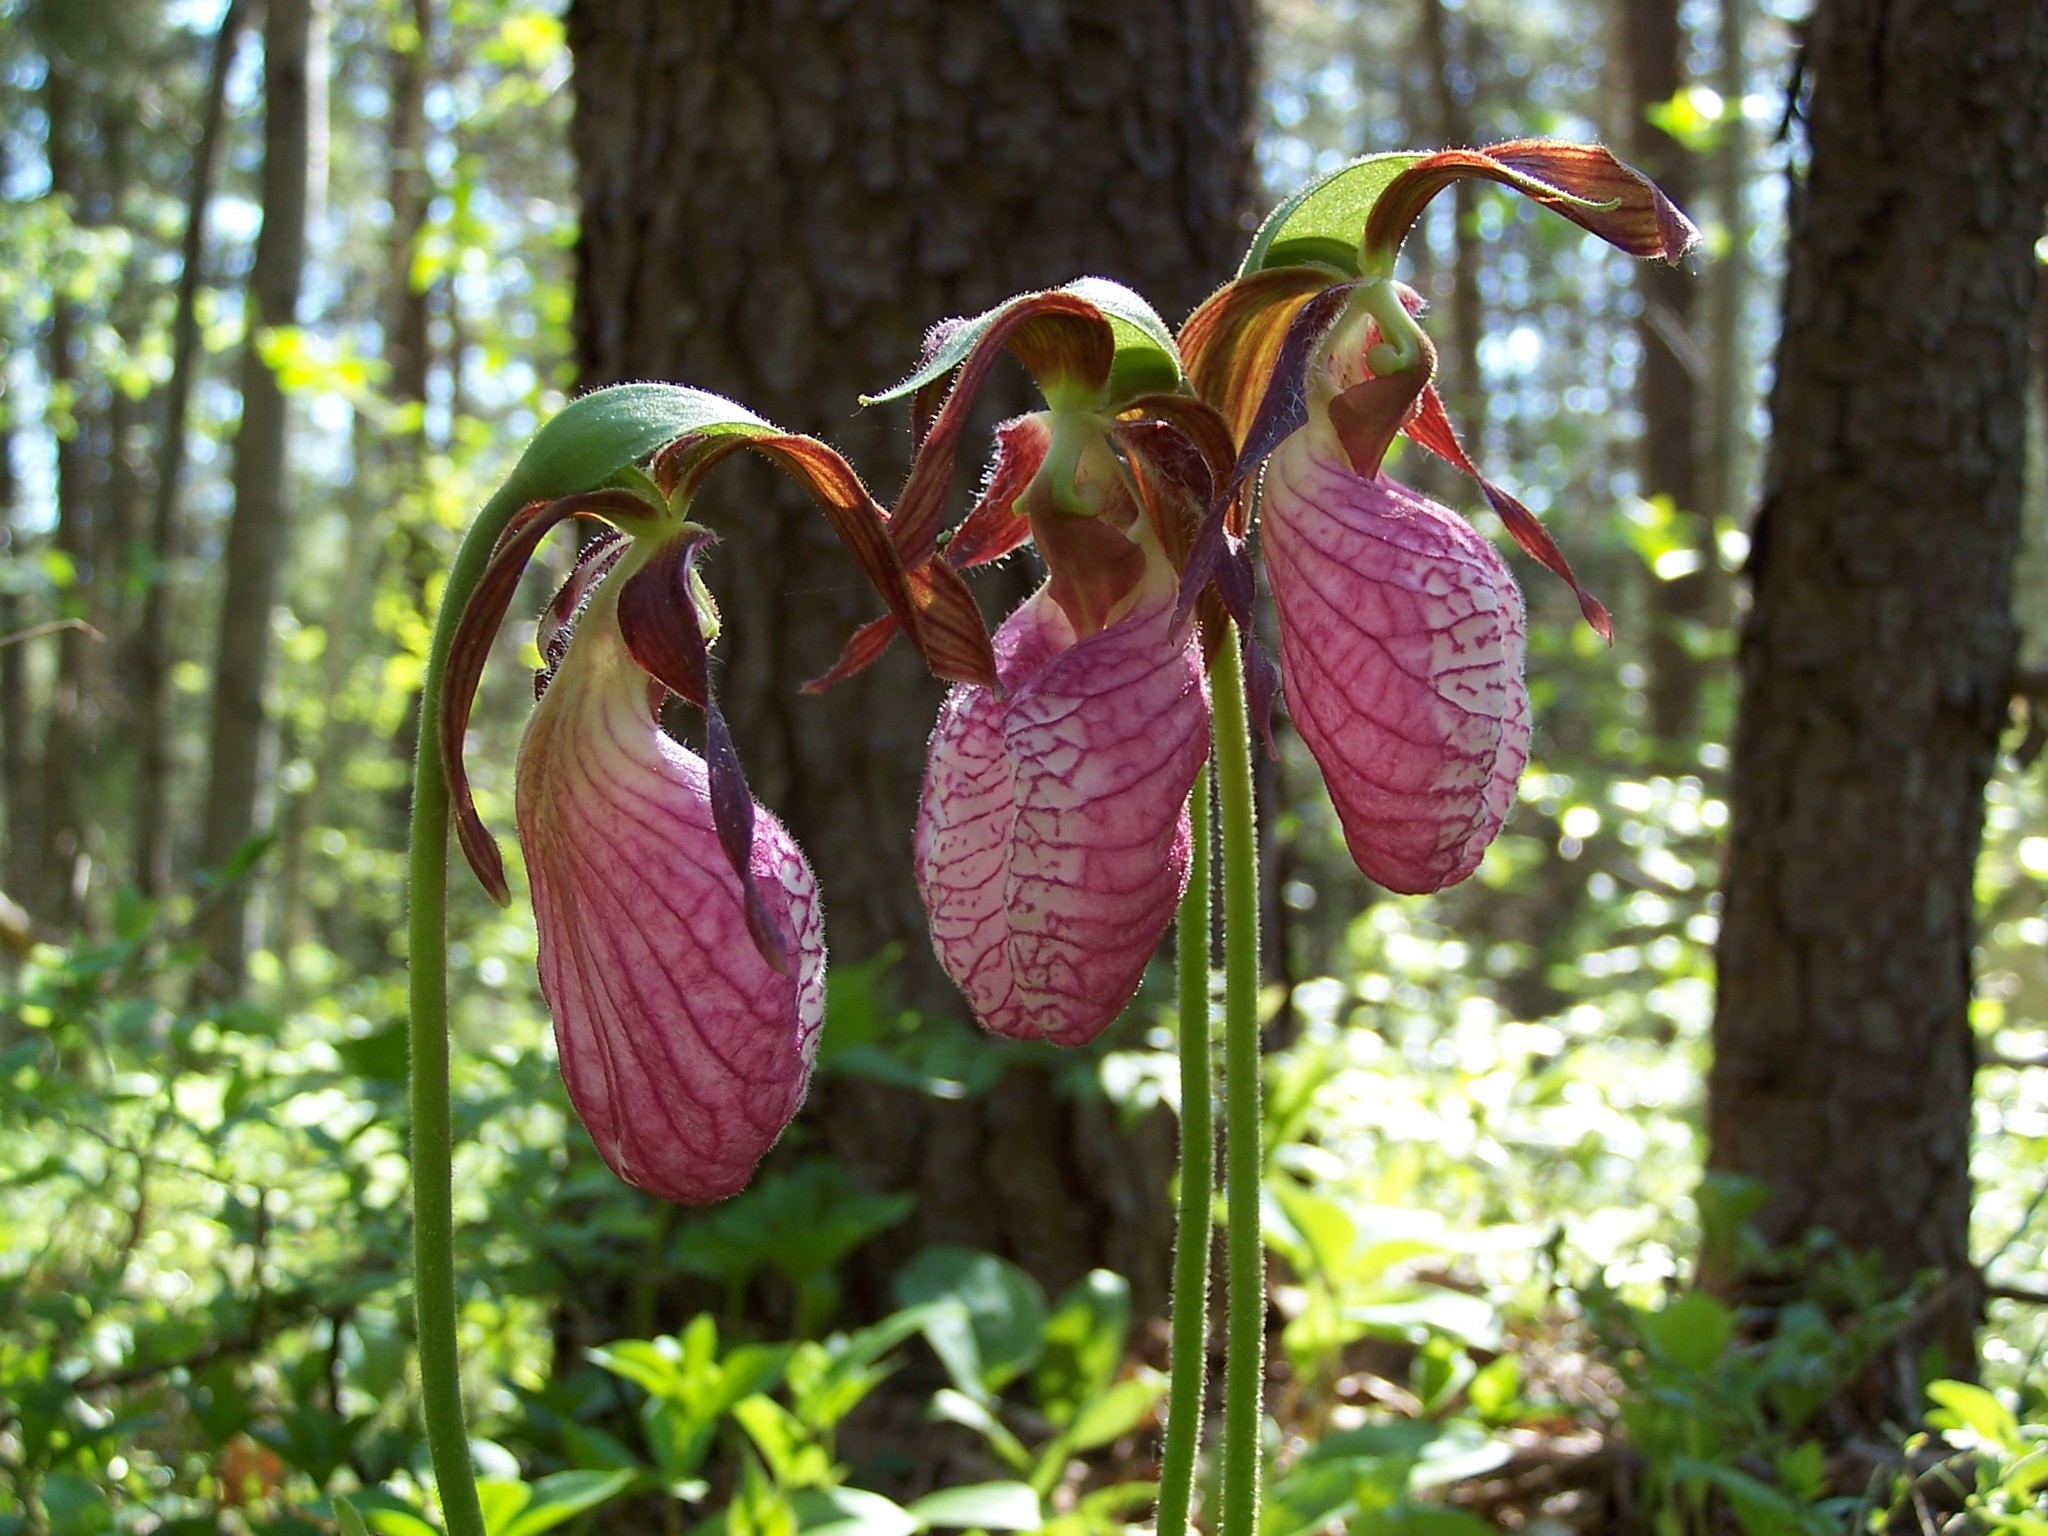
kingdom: Plantae
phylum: Tracheophyta
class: Liliopsida
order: Asparagales
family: Orchidaceae
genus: Cypripedium
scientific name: Cypripedium acaule
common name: Pink lady's-slipper
